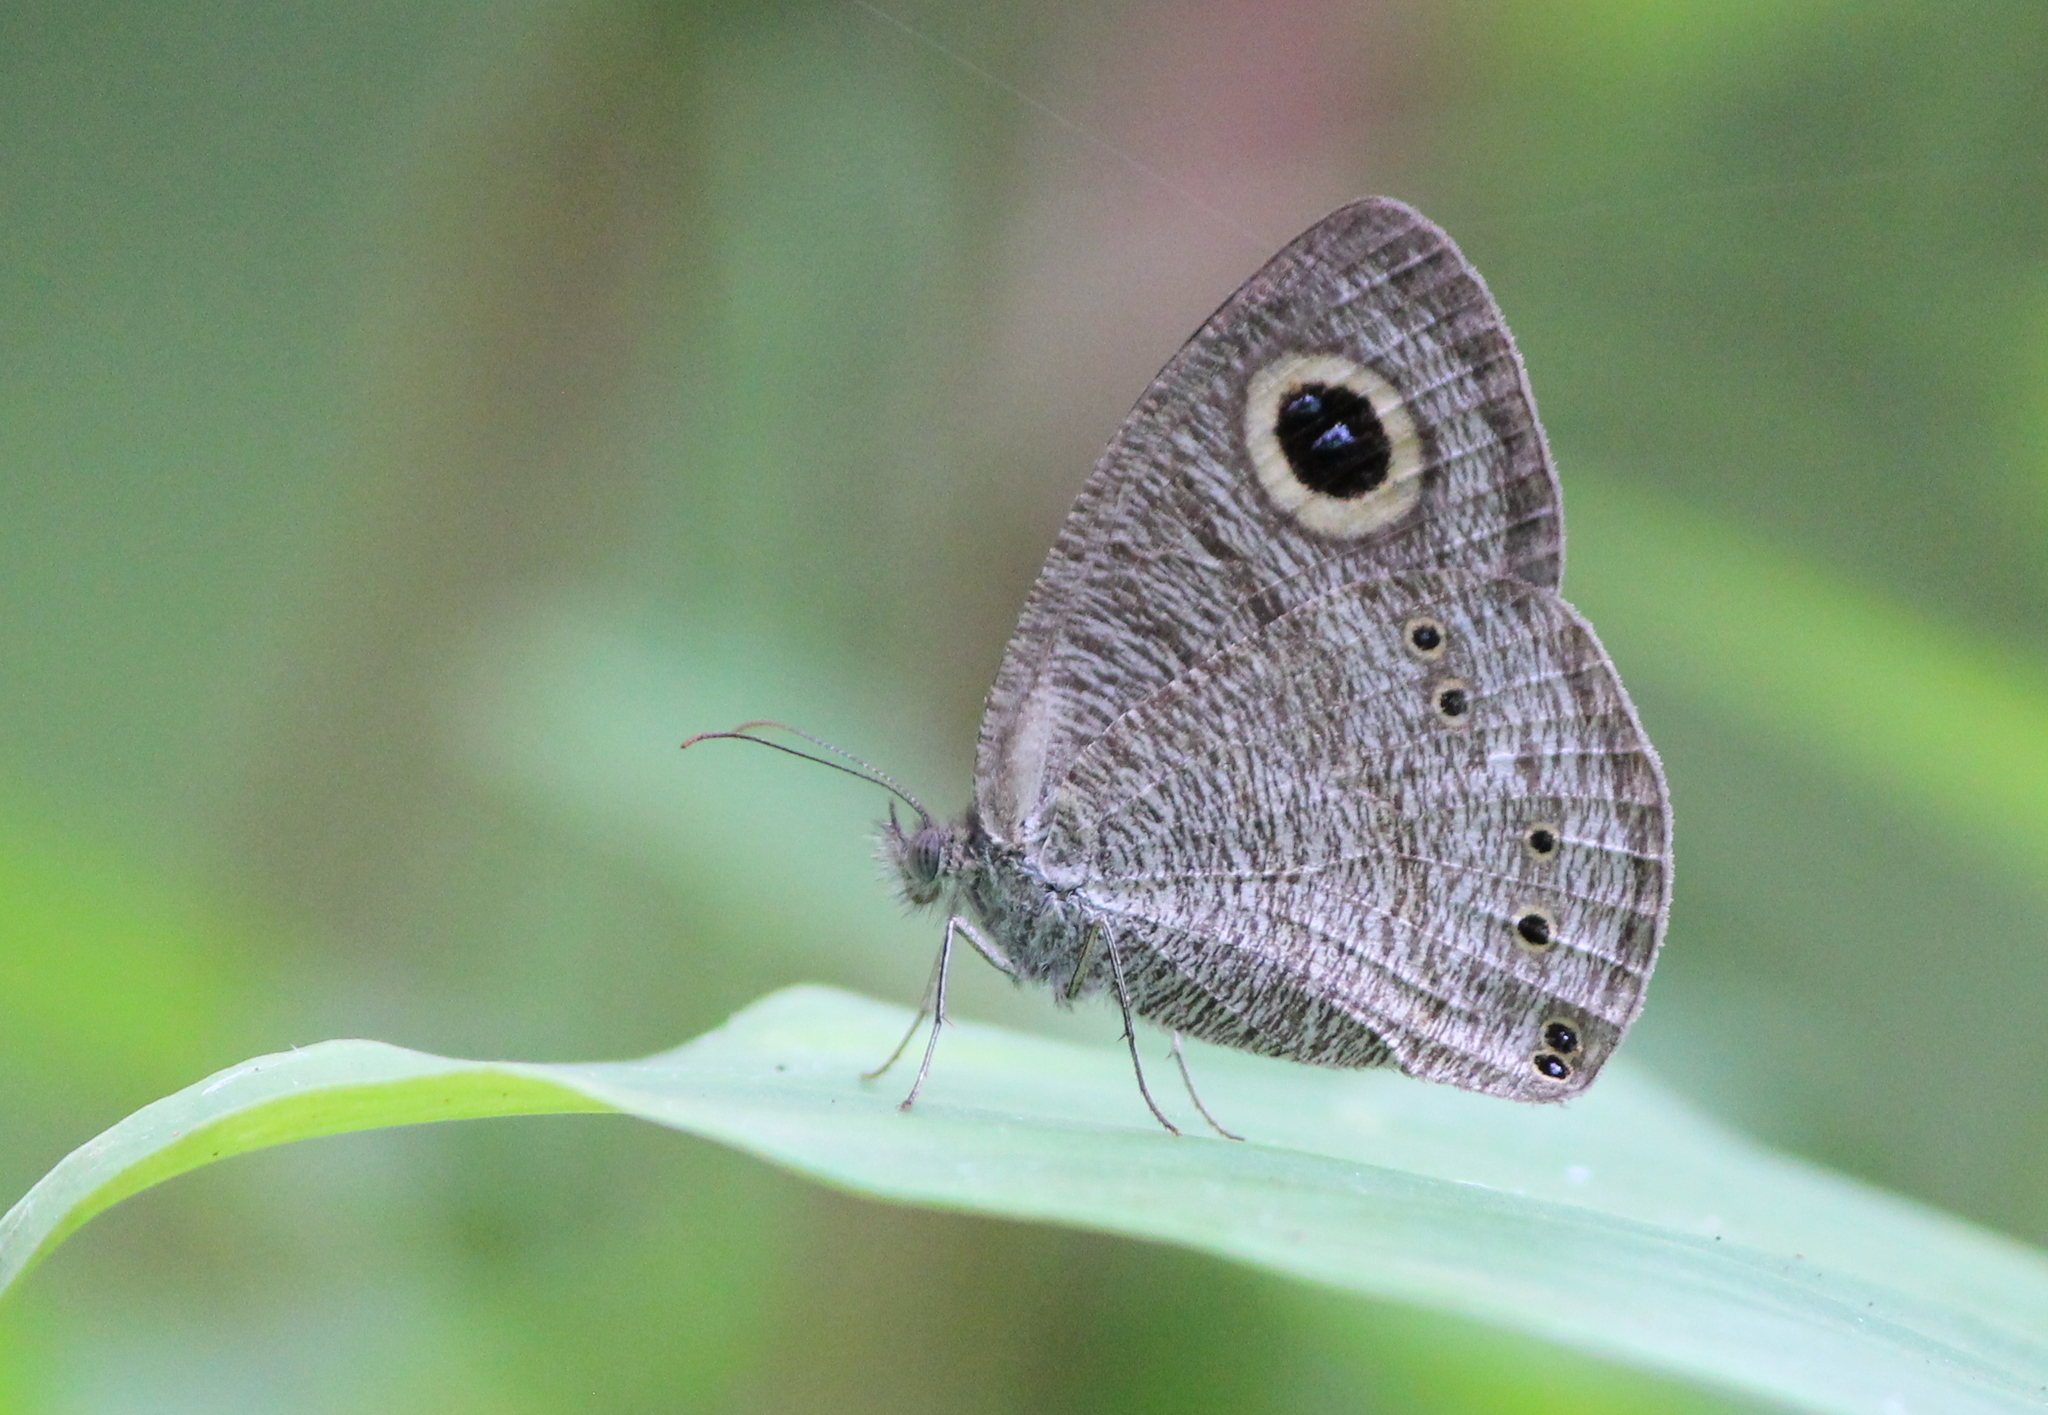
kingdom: Animalia
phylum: Arthropoda
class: Insecta
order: Lepidoptera
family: Nymphalidae
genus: Ypthima
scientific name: Ypthima baldus
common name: Common five-ring
